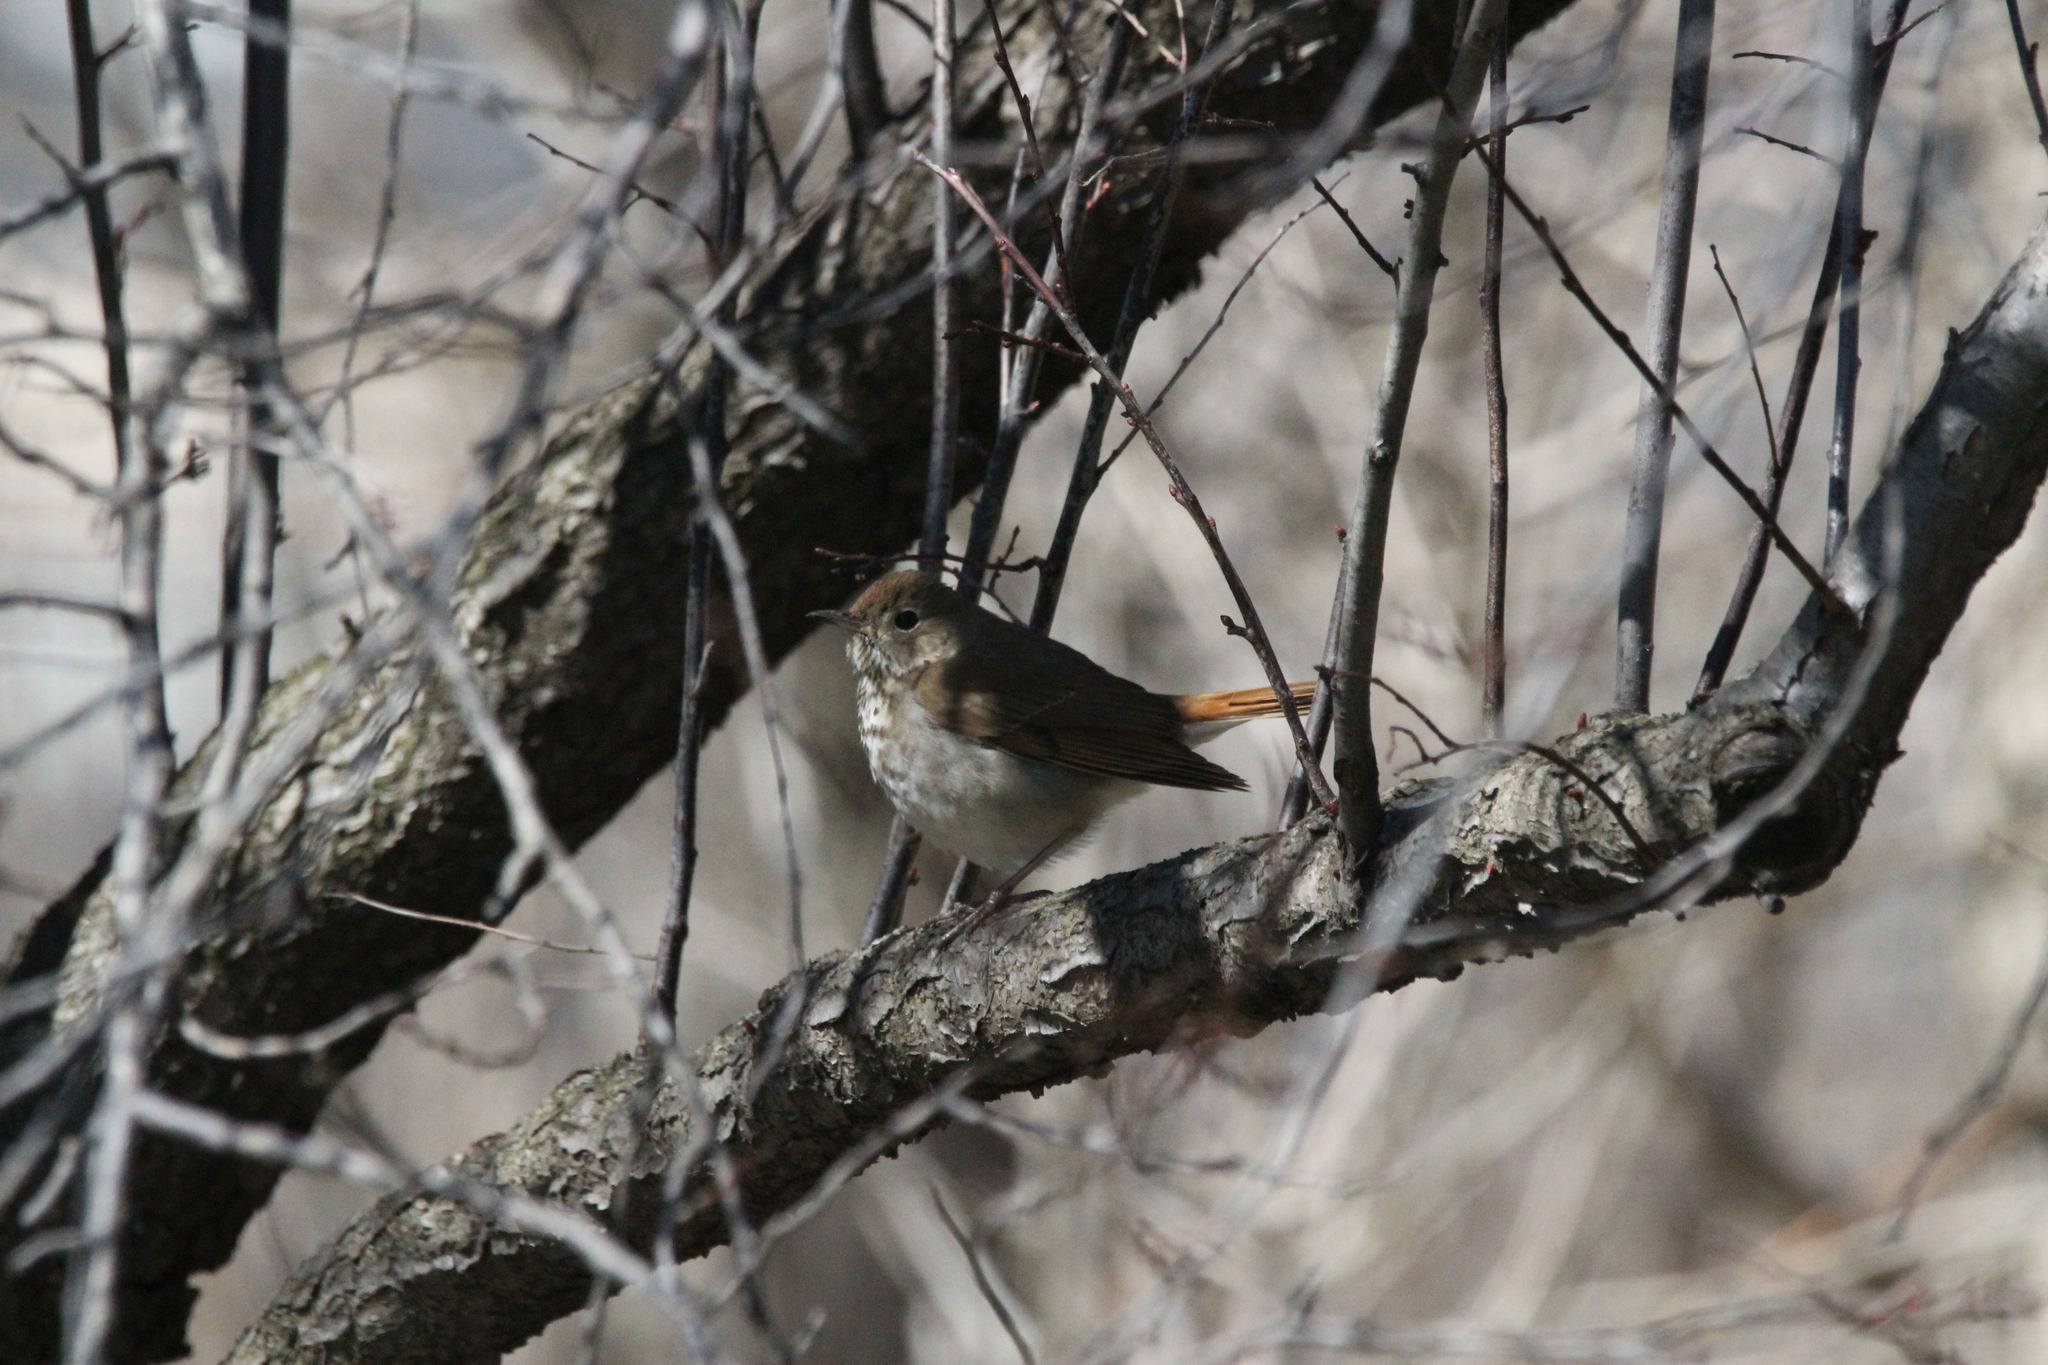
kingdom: Animalia
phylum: Chordata
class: Aves
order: Passeriformes
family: Turdidae
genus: Catharus
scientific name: Catharus guttatus
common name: Hermit thrush
